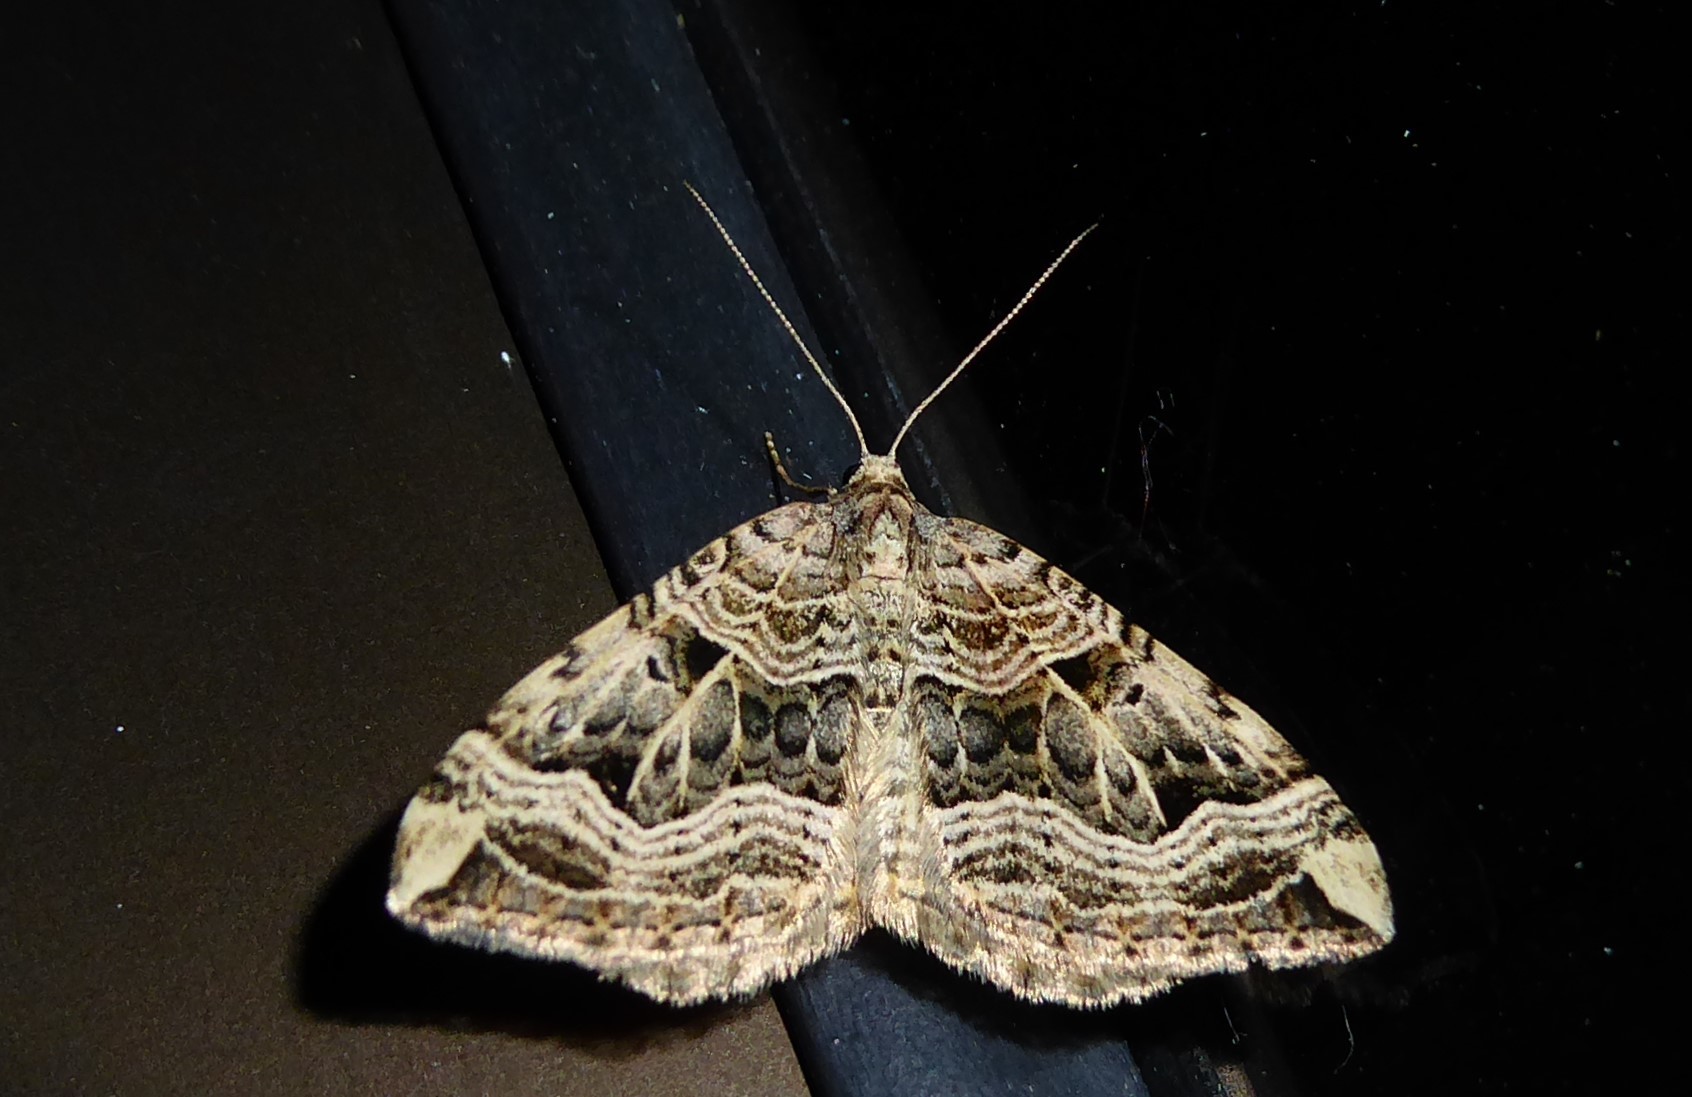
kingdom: Animalia
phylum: Arthropoda
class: Insecta
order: Lepidoptera
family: Geometridae
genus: Xanthorhoe
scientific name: Xanthorhoe semifissata
